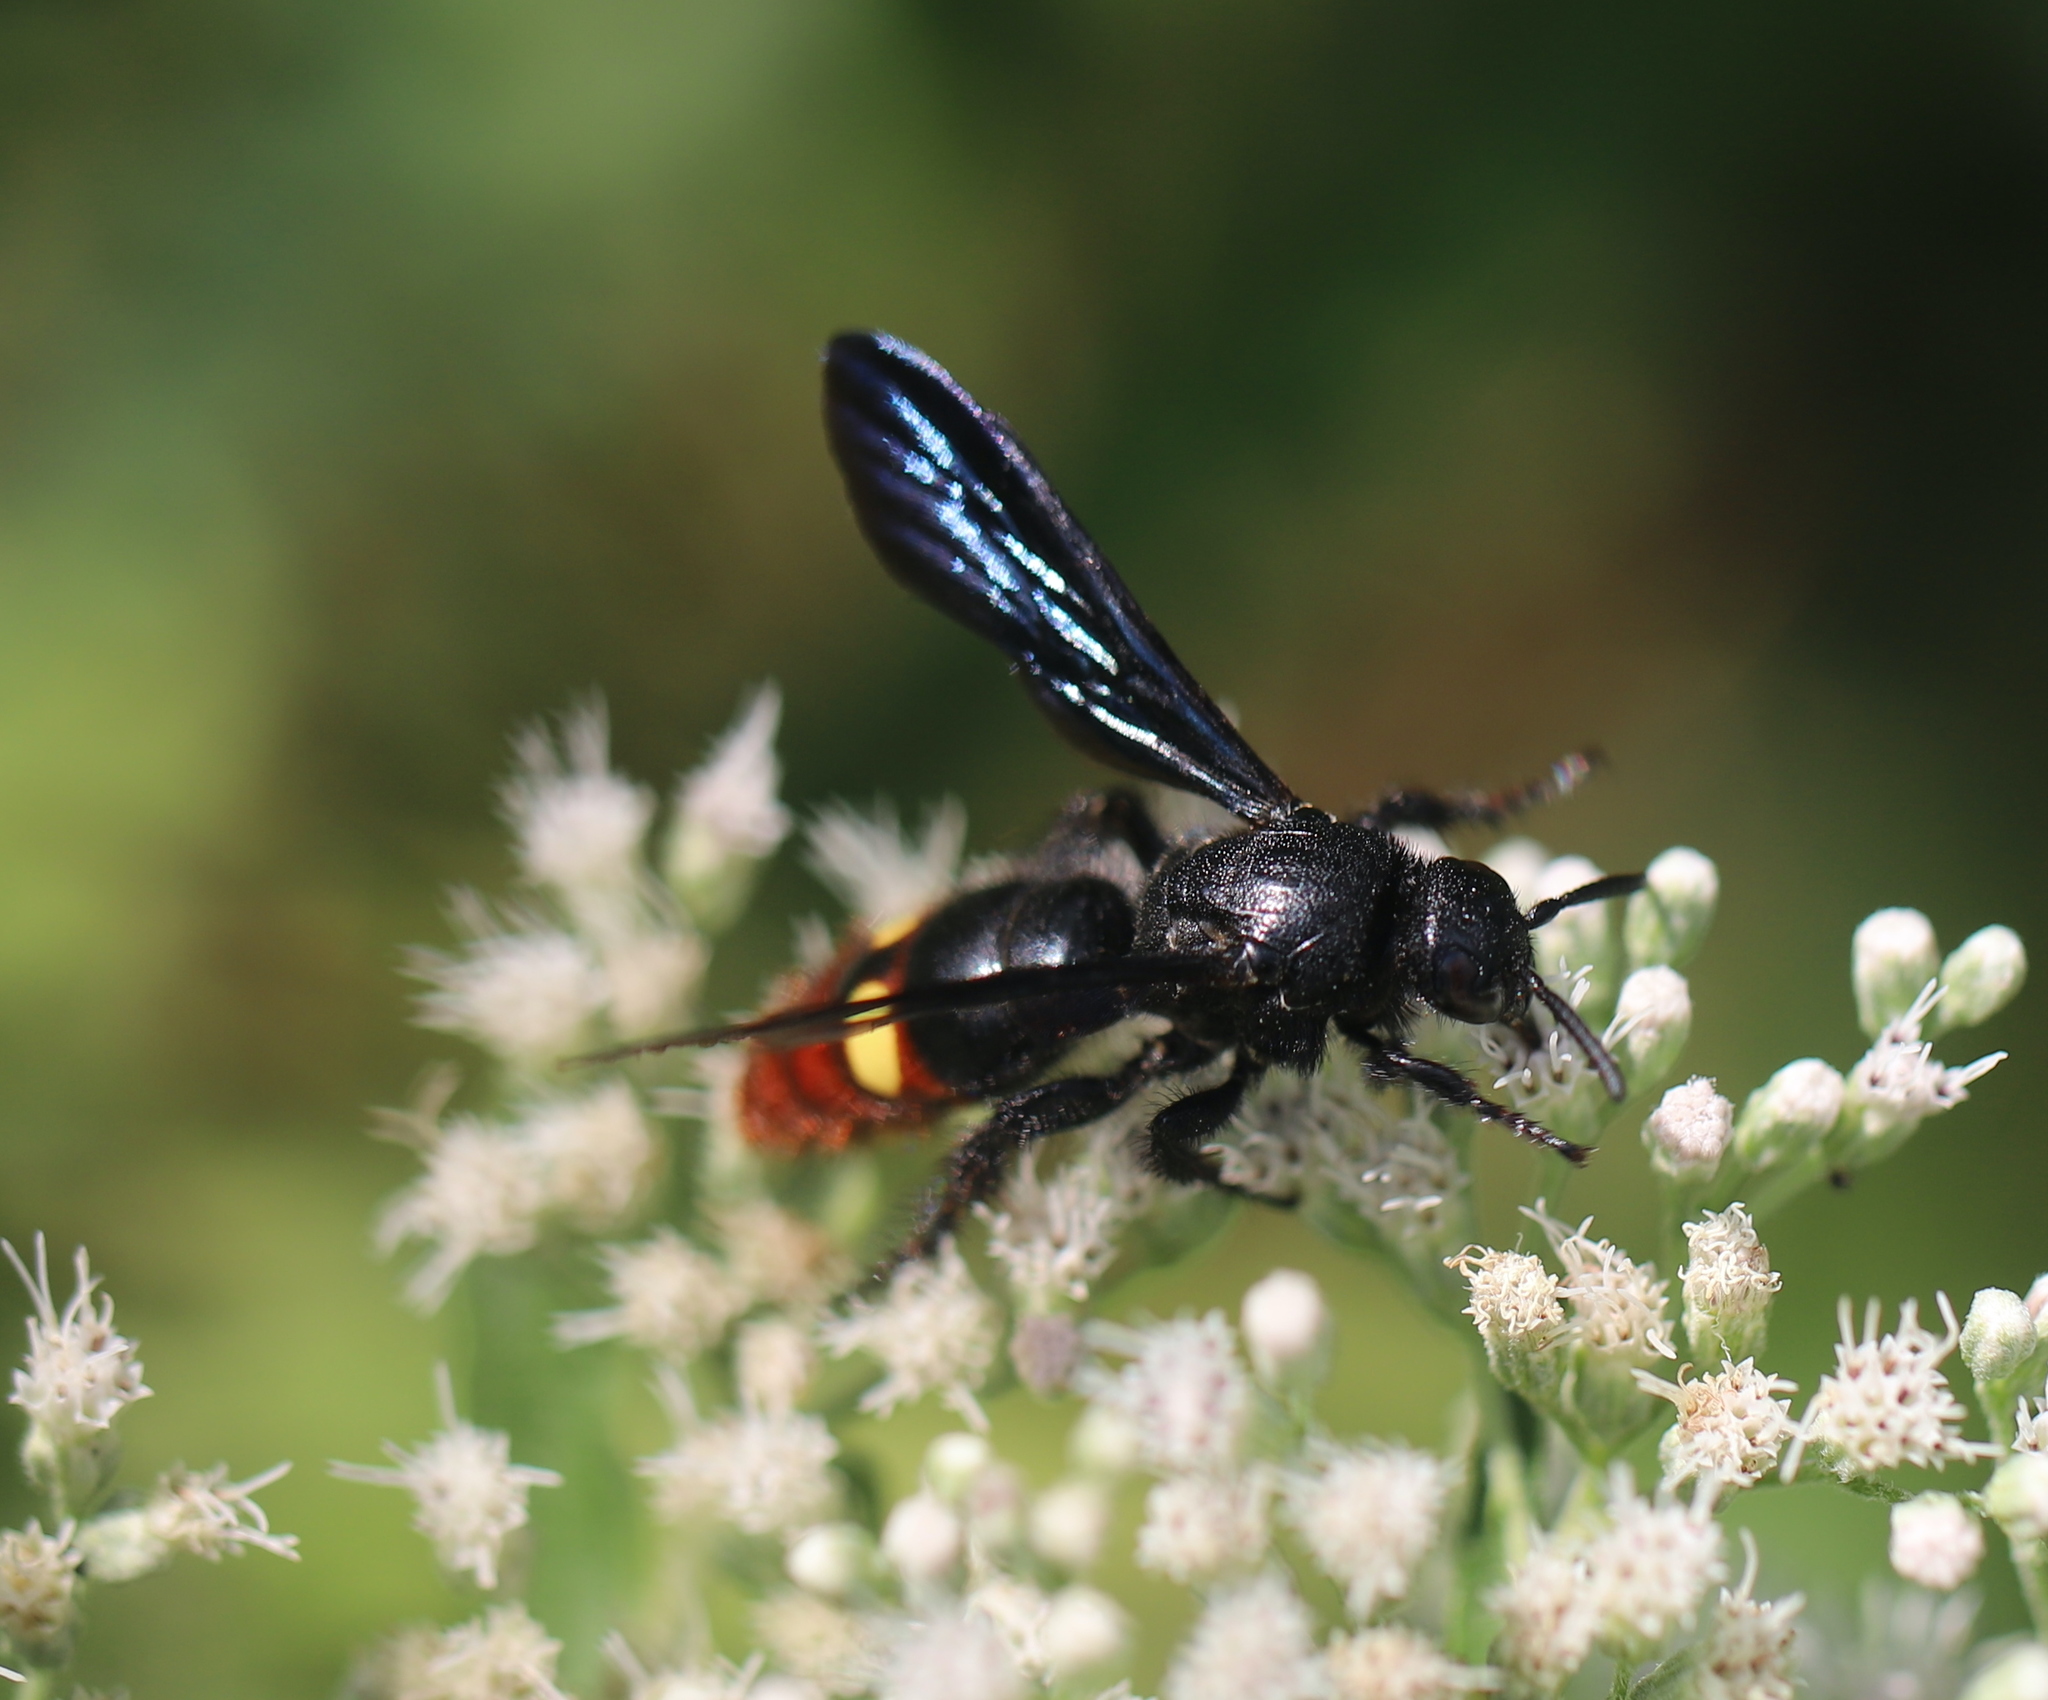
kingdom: Animalia
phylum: Arthropoda
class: Insecta
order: Hymenoptera
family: Scoliidae
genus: Scolia
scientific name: Scolia dubia
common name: Blue-winged scoliid wasp
